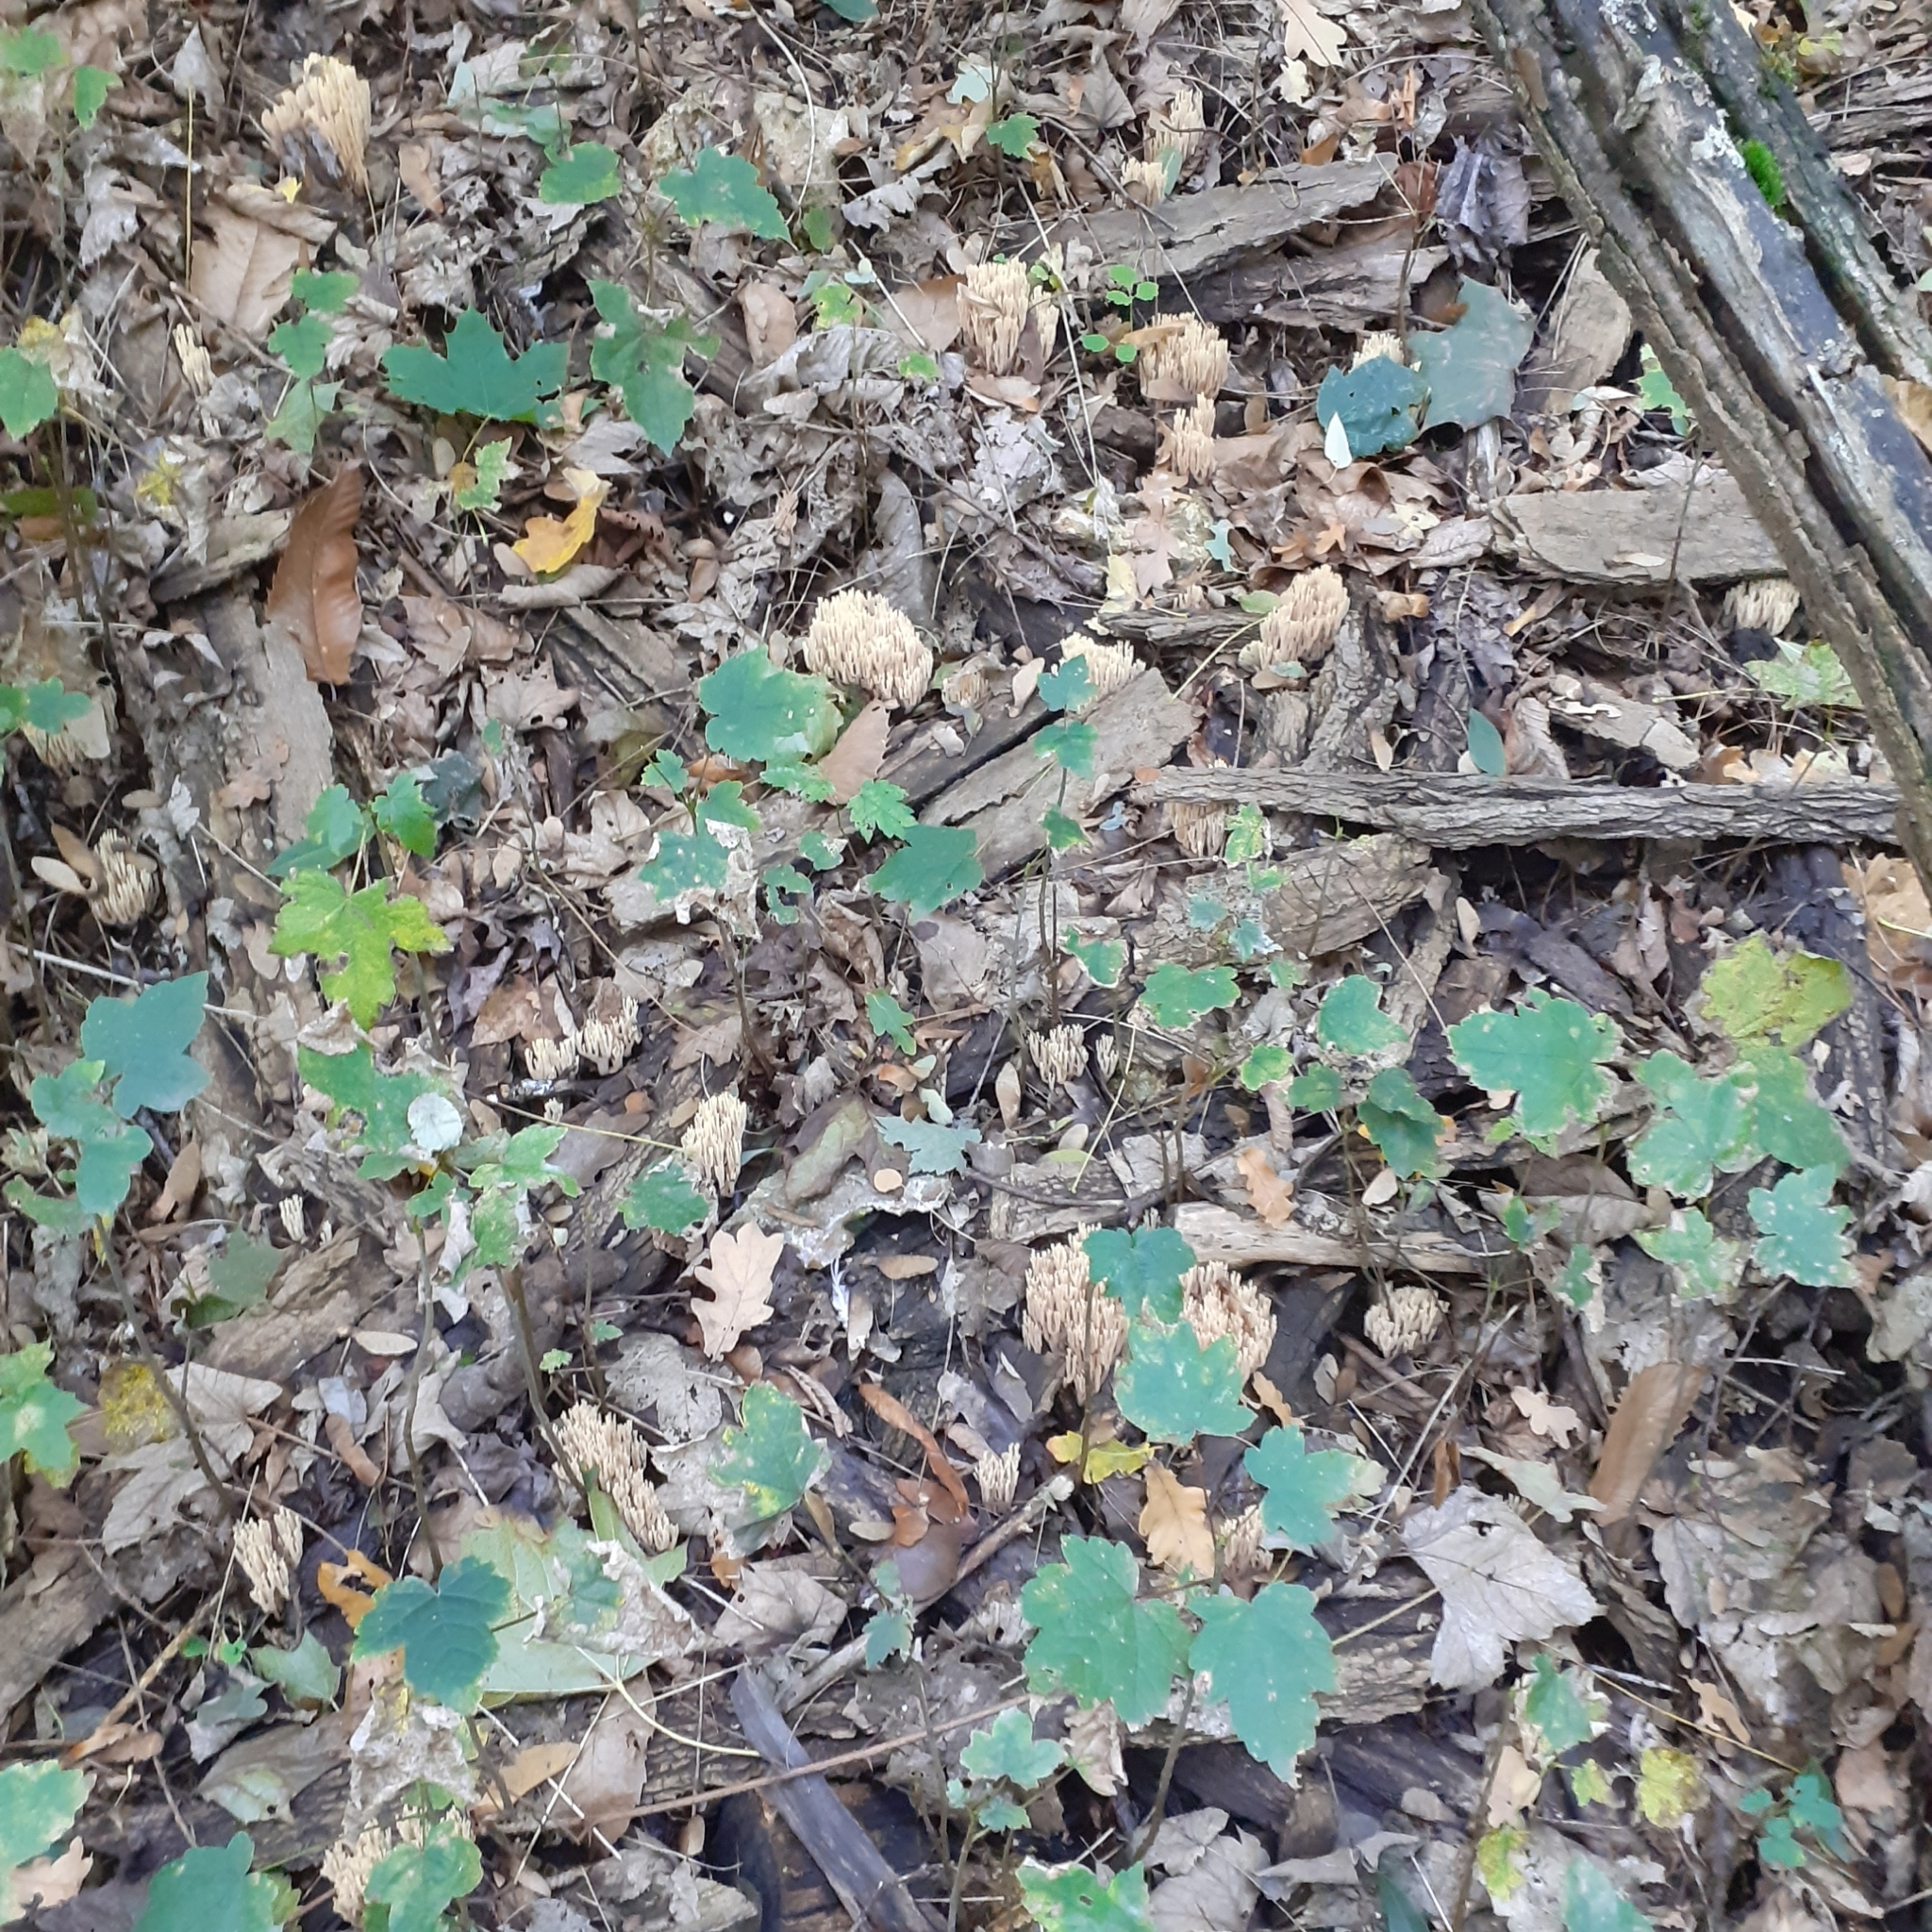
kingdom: Fungi
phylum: Basidiomycota
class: Agaricomycetes
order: Gomphales
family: Gomphaceae
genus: Ramaria
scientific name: Ramaria stricta
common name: Upright coral
